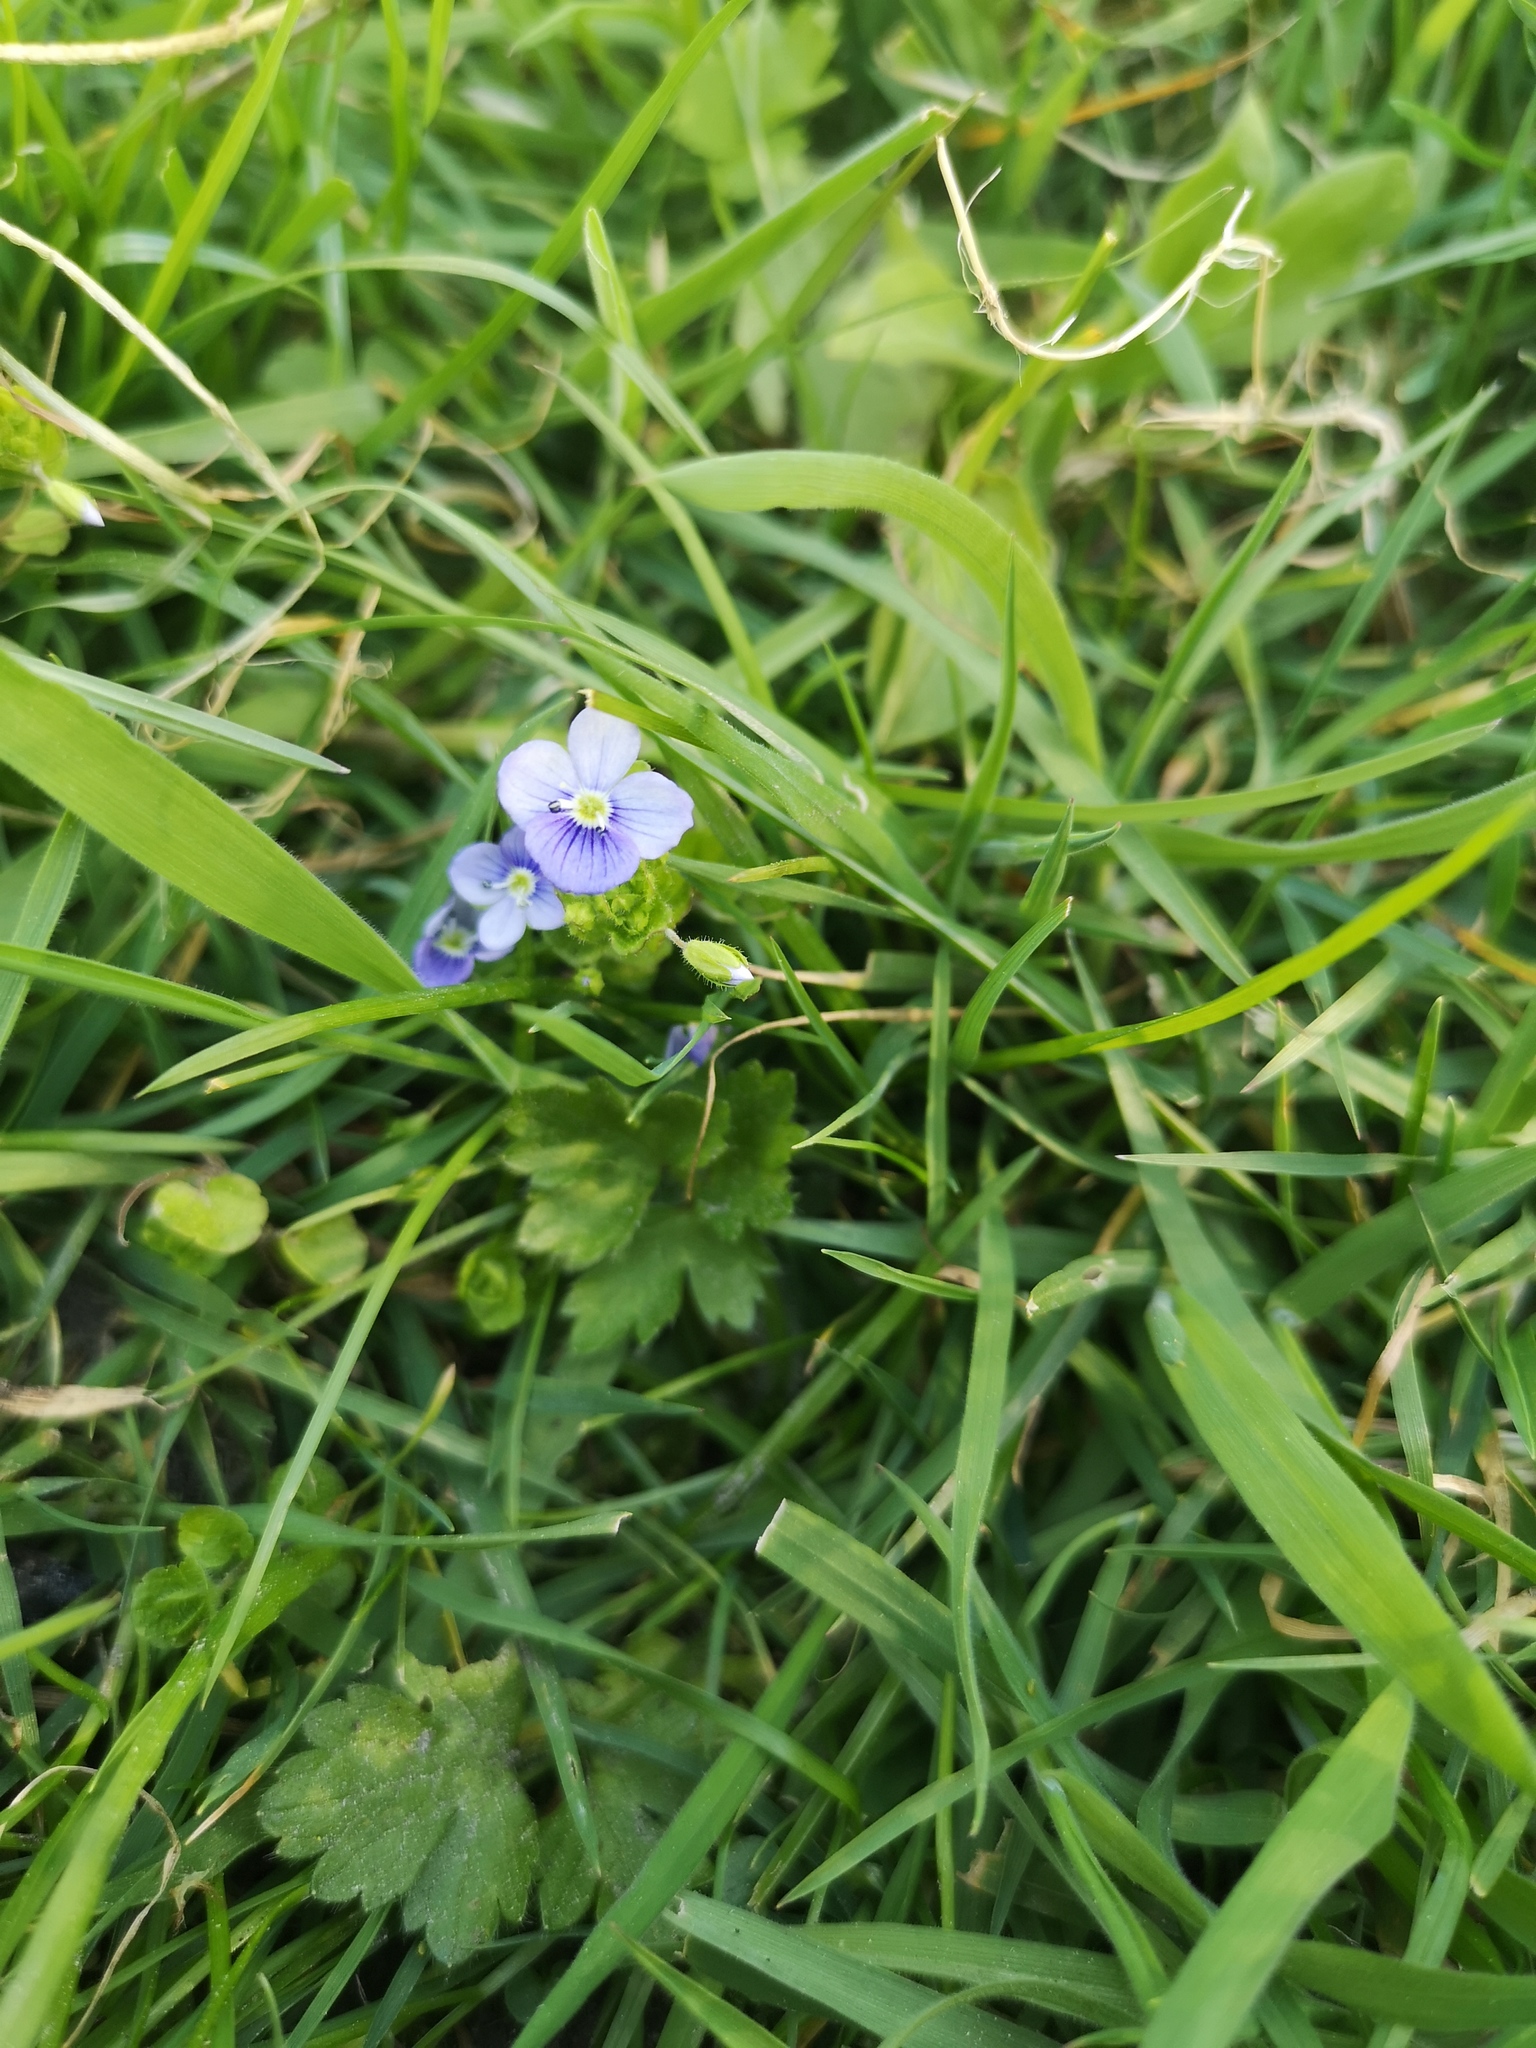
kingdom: Plantae
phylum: Tracheophyta
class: Magnoliopsida
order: Lamiales
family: Plantaginaceae
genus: Veronica
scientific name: Veronica filiformis
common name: Slender speedwell
